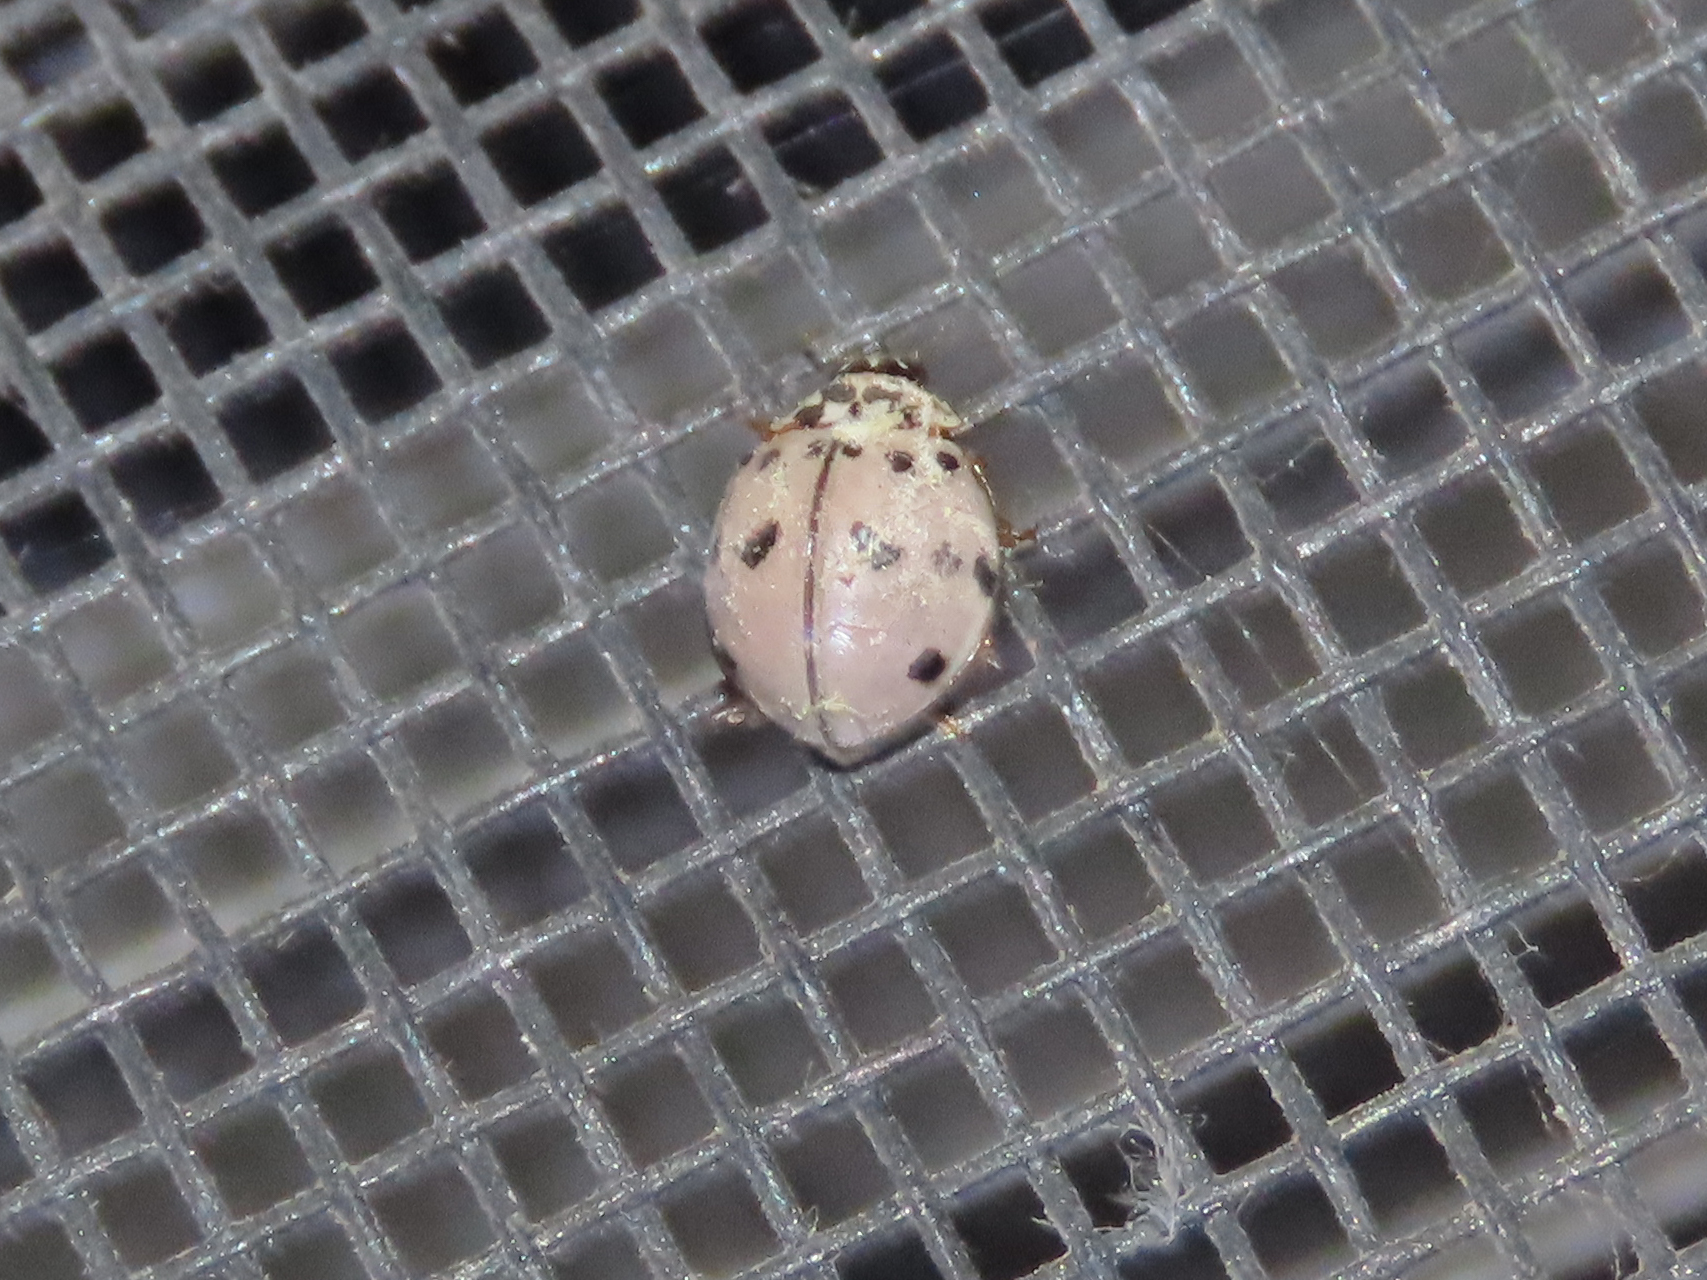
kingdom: Animalia
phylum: Arthropoda
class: Insecta
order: Coleoptera
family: Coccinellidae
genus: Olla
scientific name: Olla v-nigrum
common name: Ashy gray lady beetle
